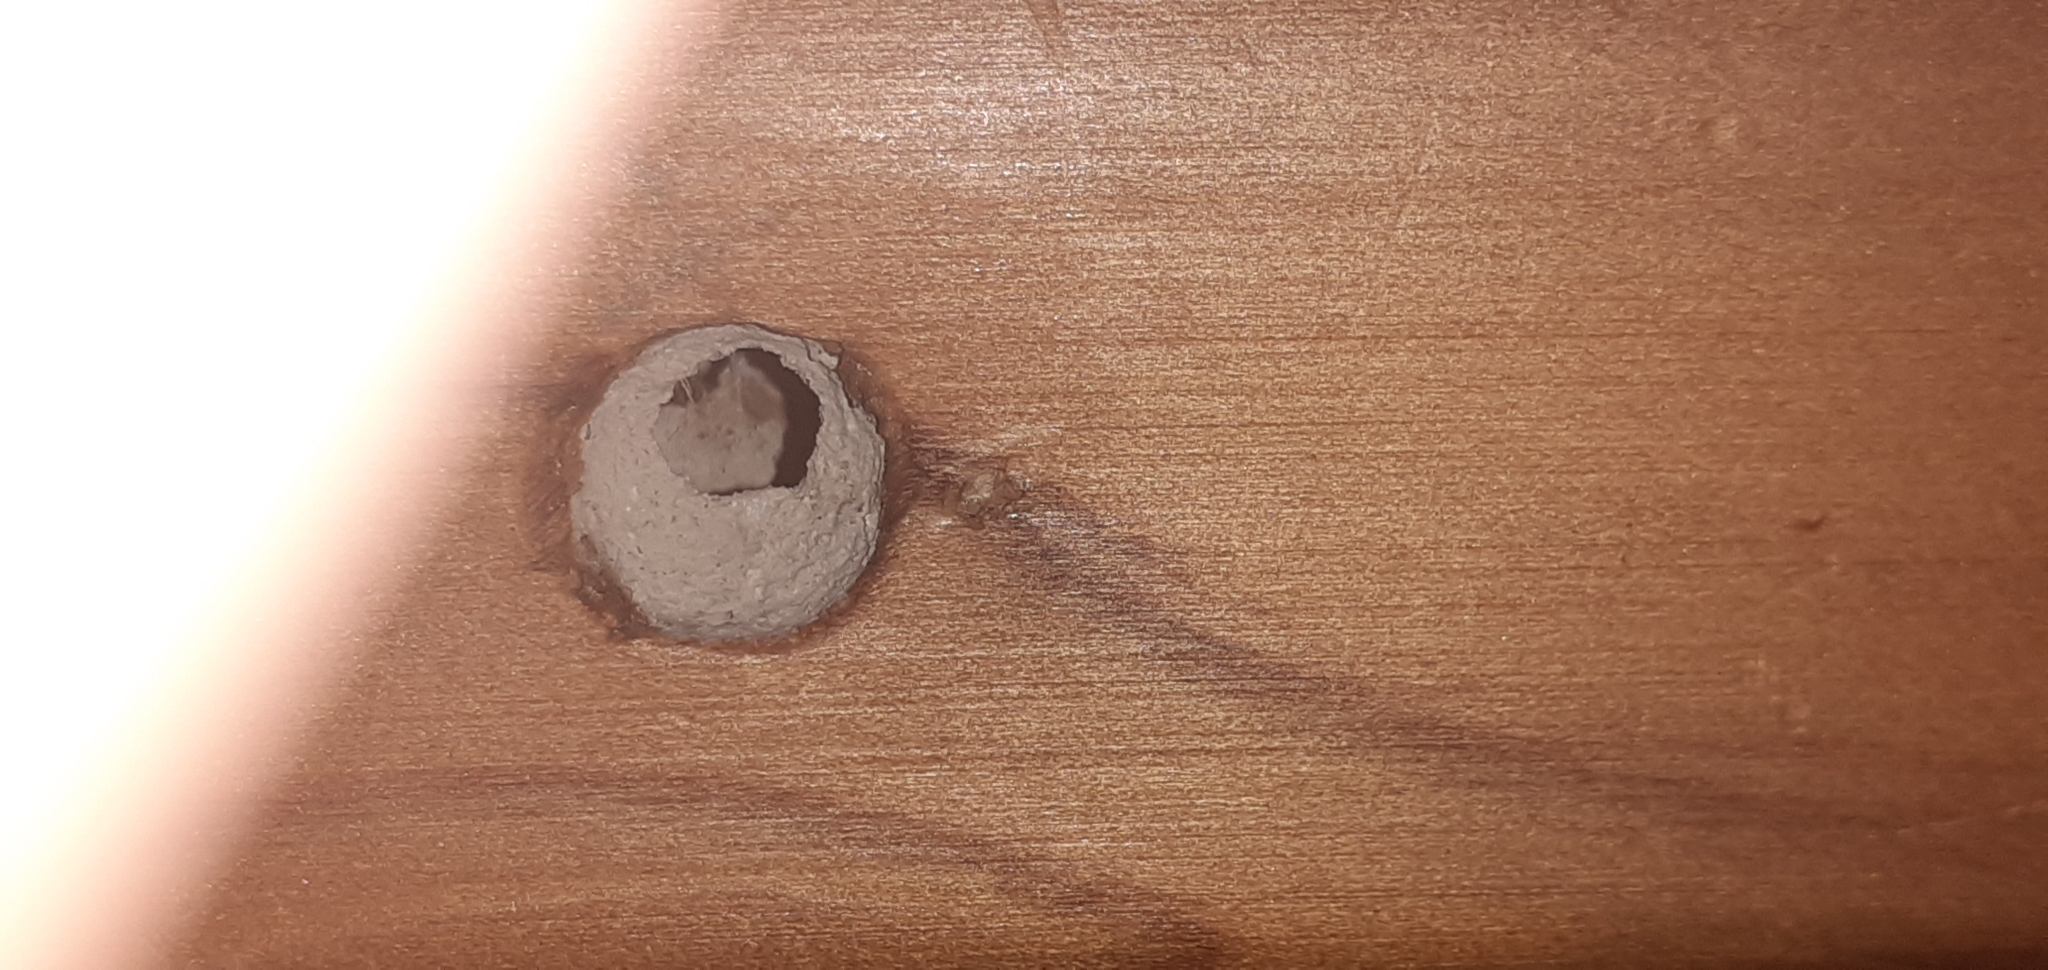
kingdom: Animalia
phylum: Arthropoda
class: Insecta
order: Hymenoptera
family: Crabronidae
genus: Pison
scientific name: Pison spinolae
